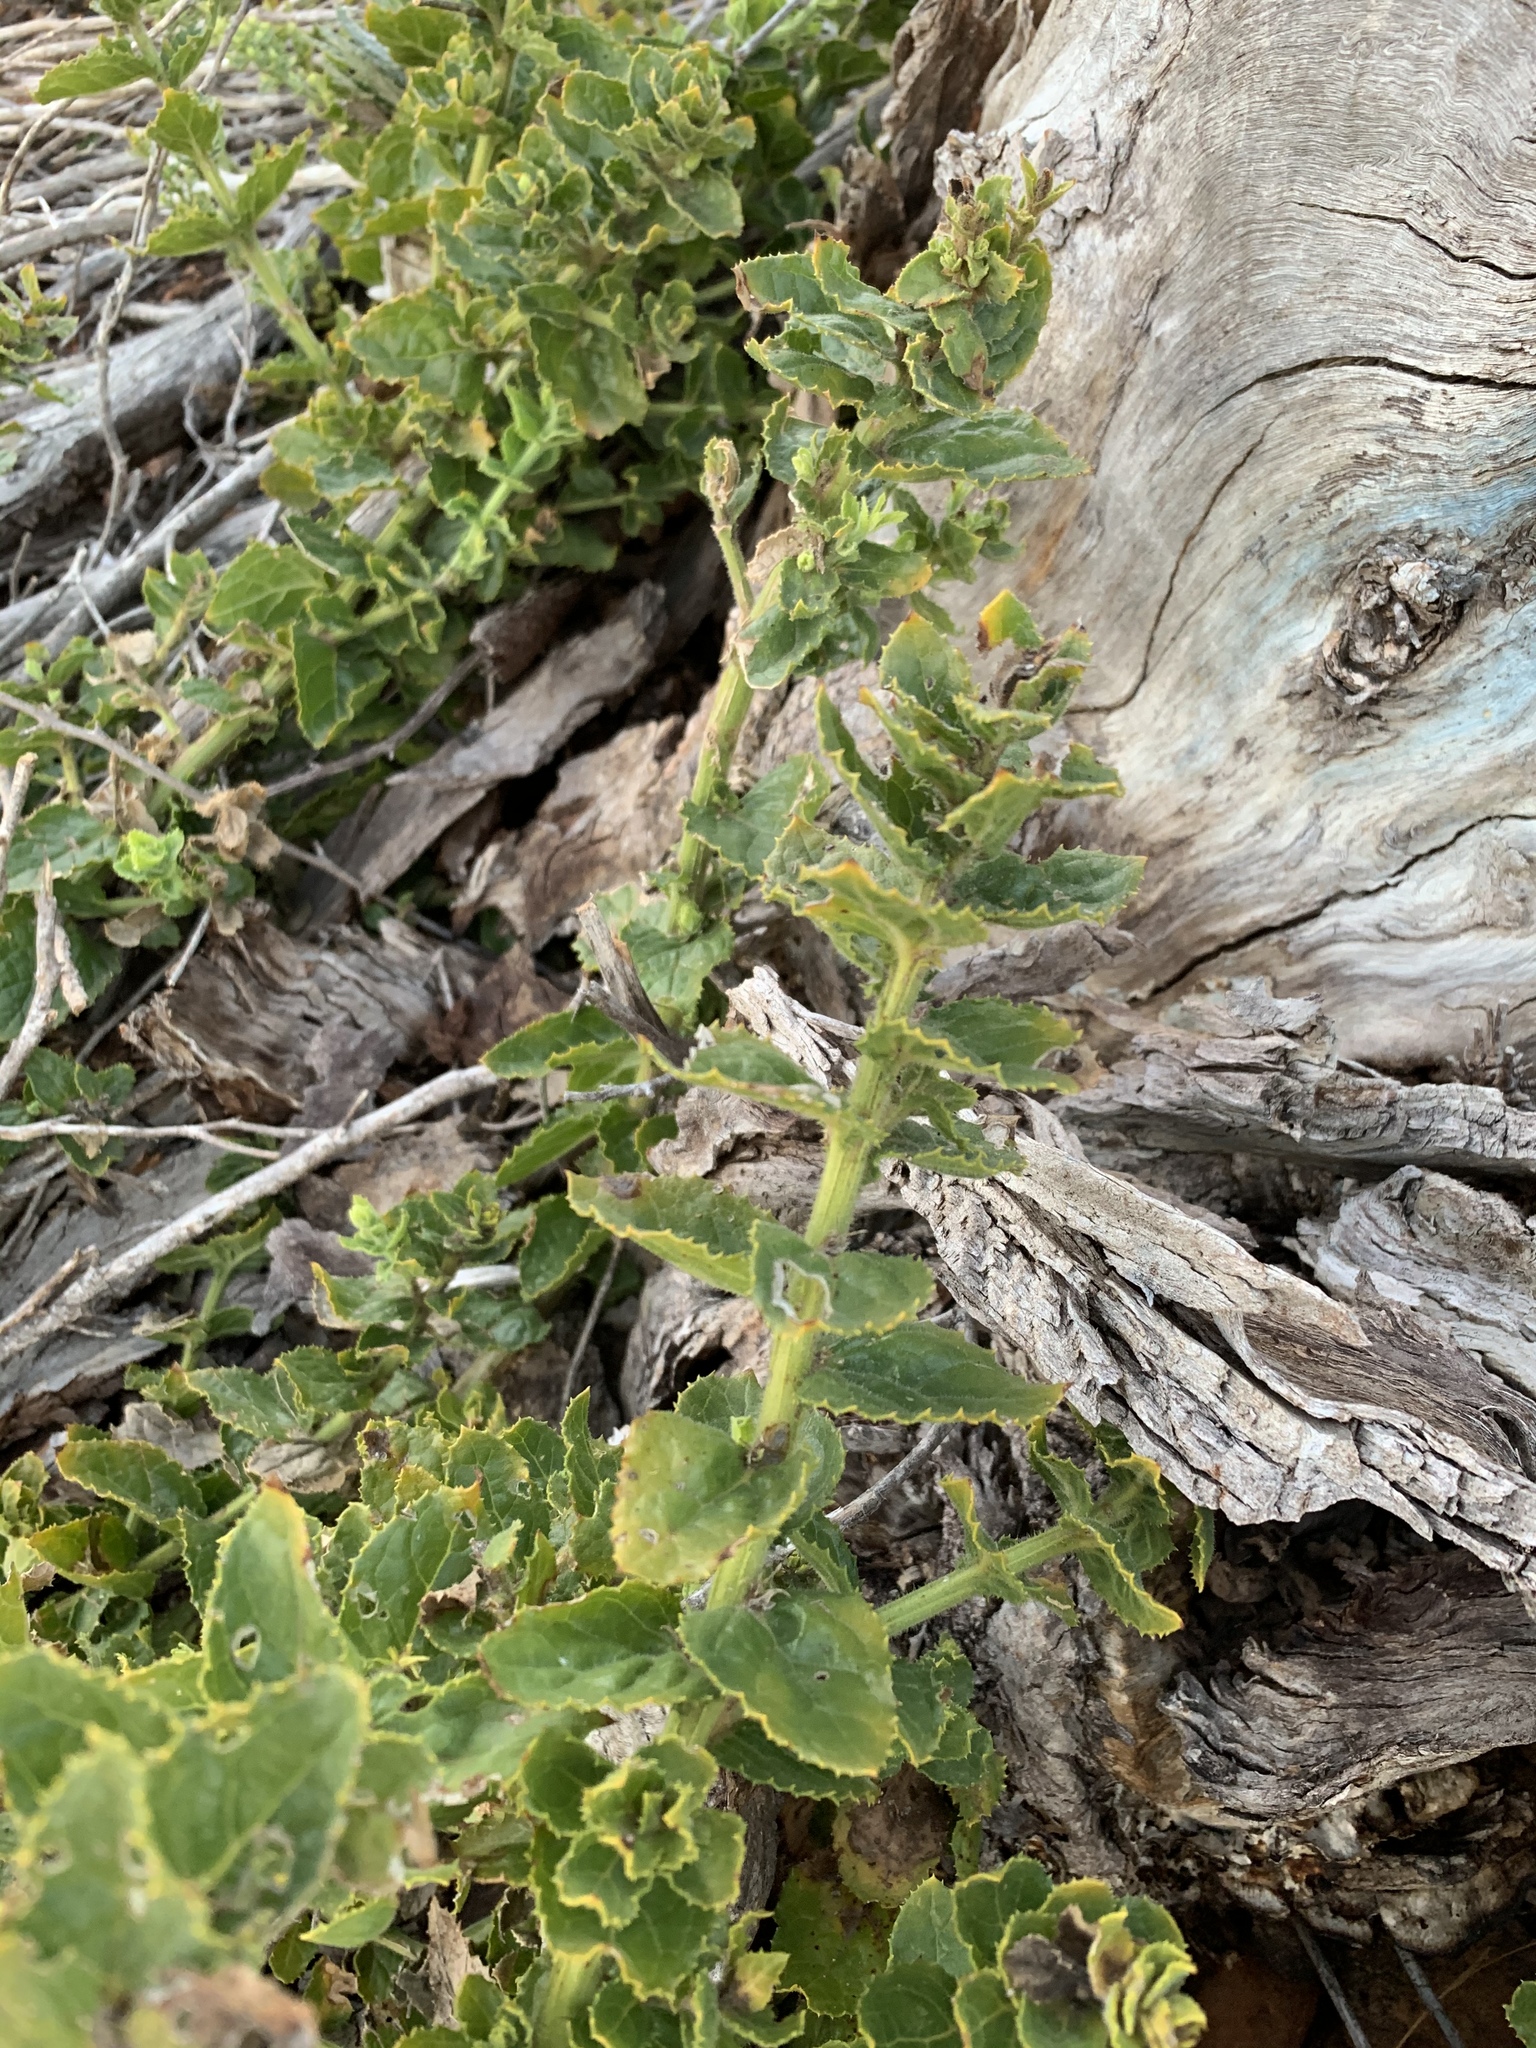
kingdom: Plantae
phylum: Tracheophyta
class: Magnoliopsida
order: Lamiales
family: Scrophulariaceae
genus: Oftia
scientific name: Oftia africana
